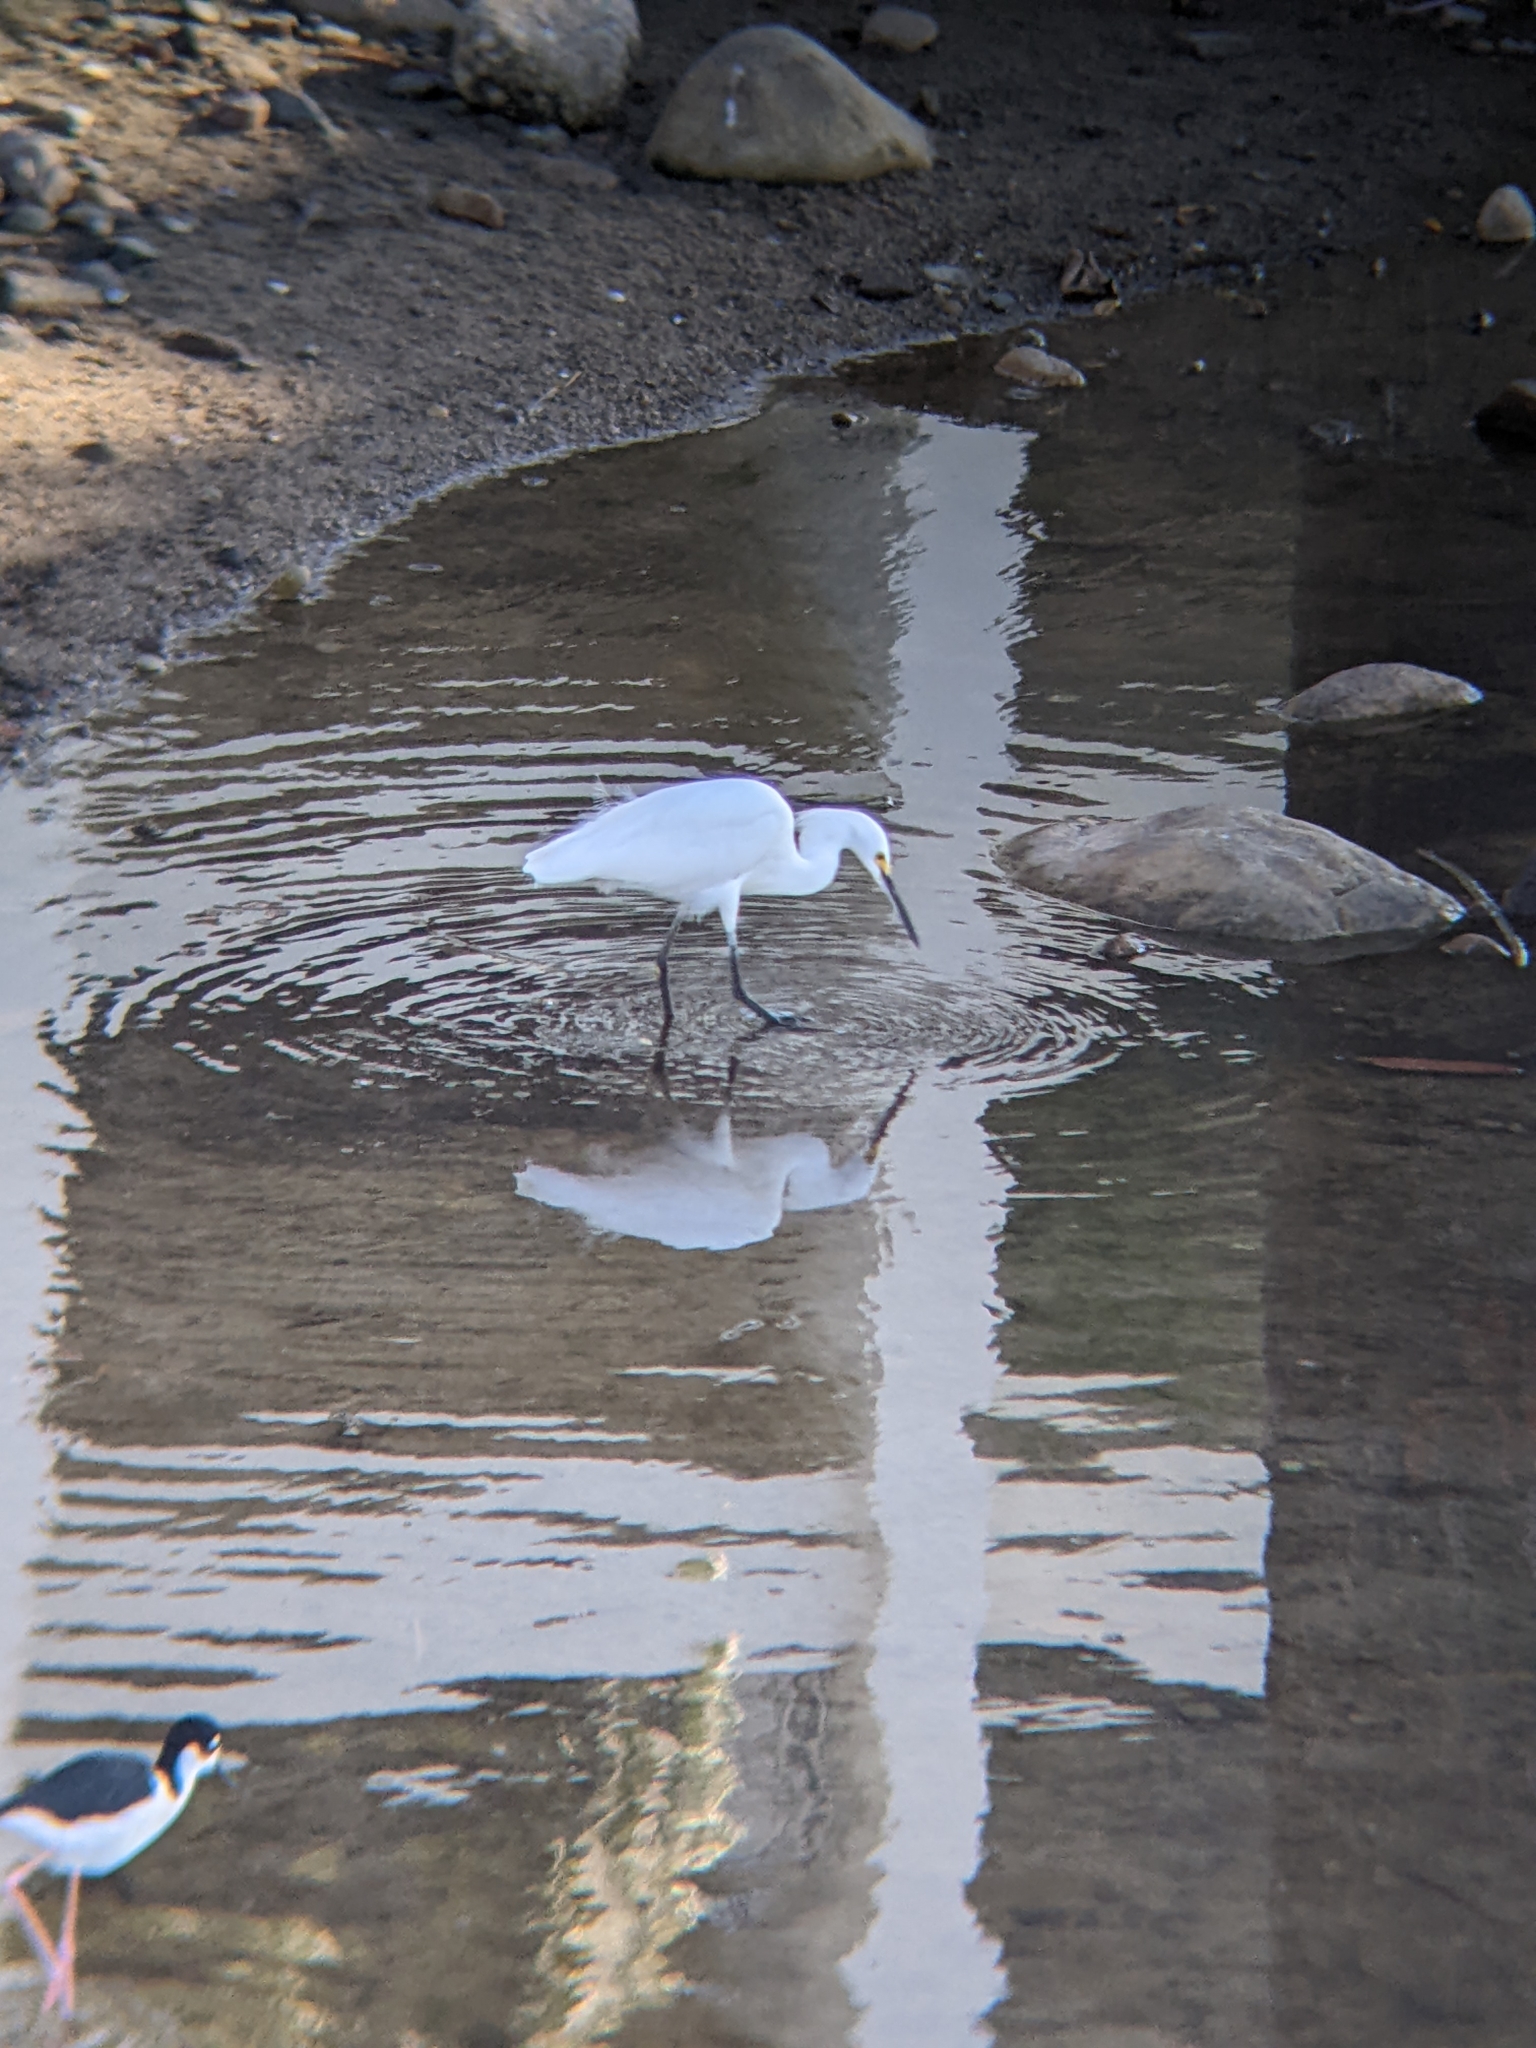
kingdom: Animalia
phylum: Chordata
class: Aves
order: Pelecaniformes
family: Ardeidae
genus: Egretta
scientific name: Egretta thula
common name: Snowy egret
